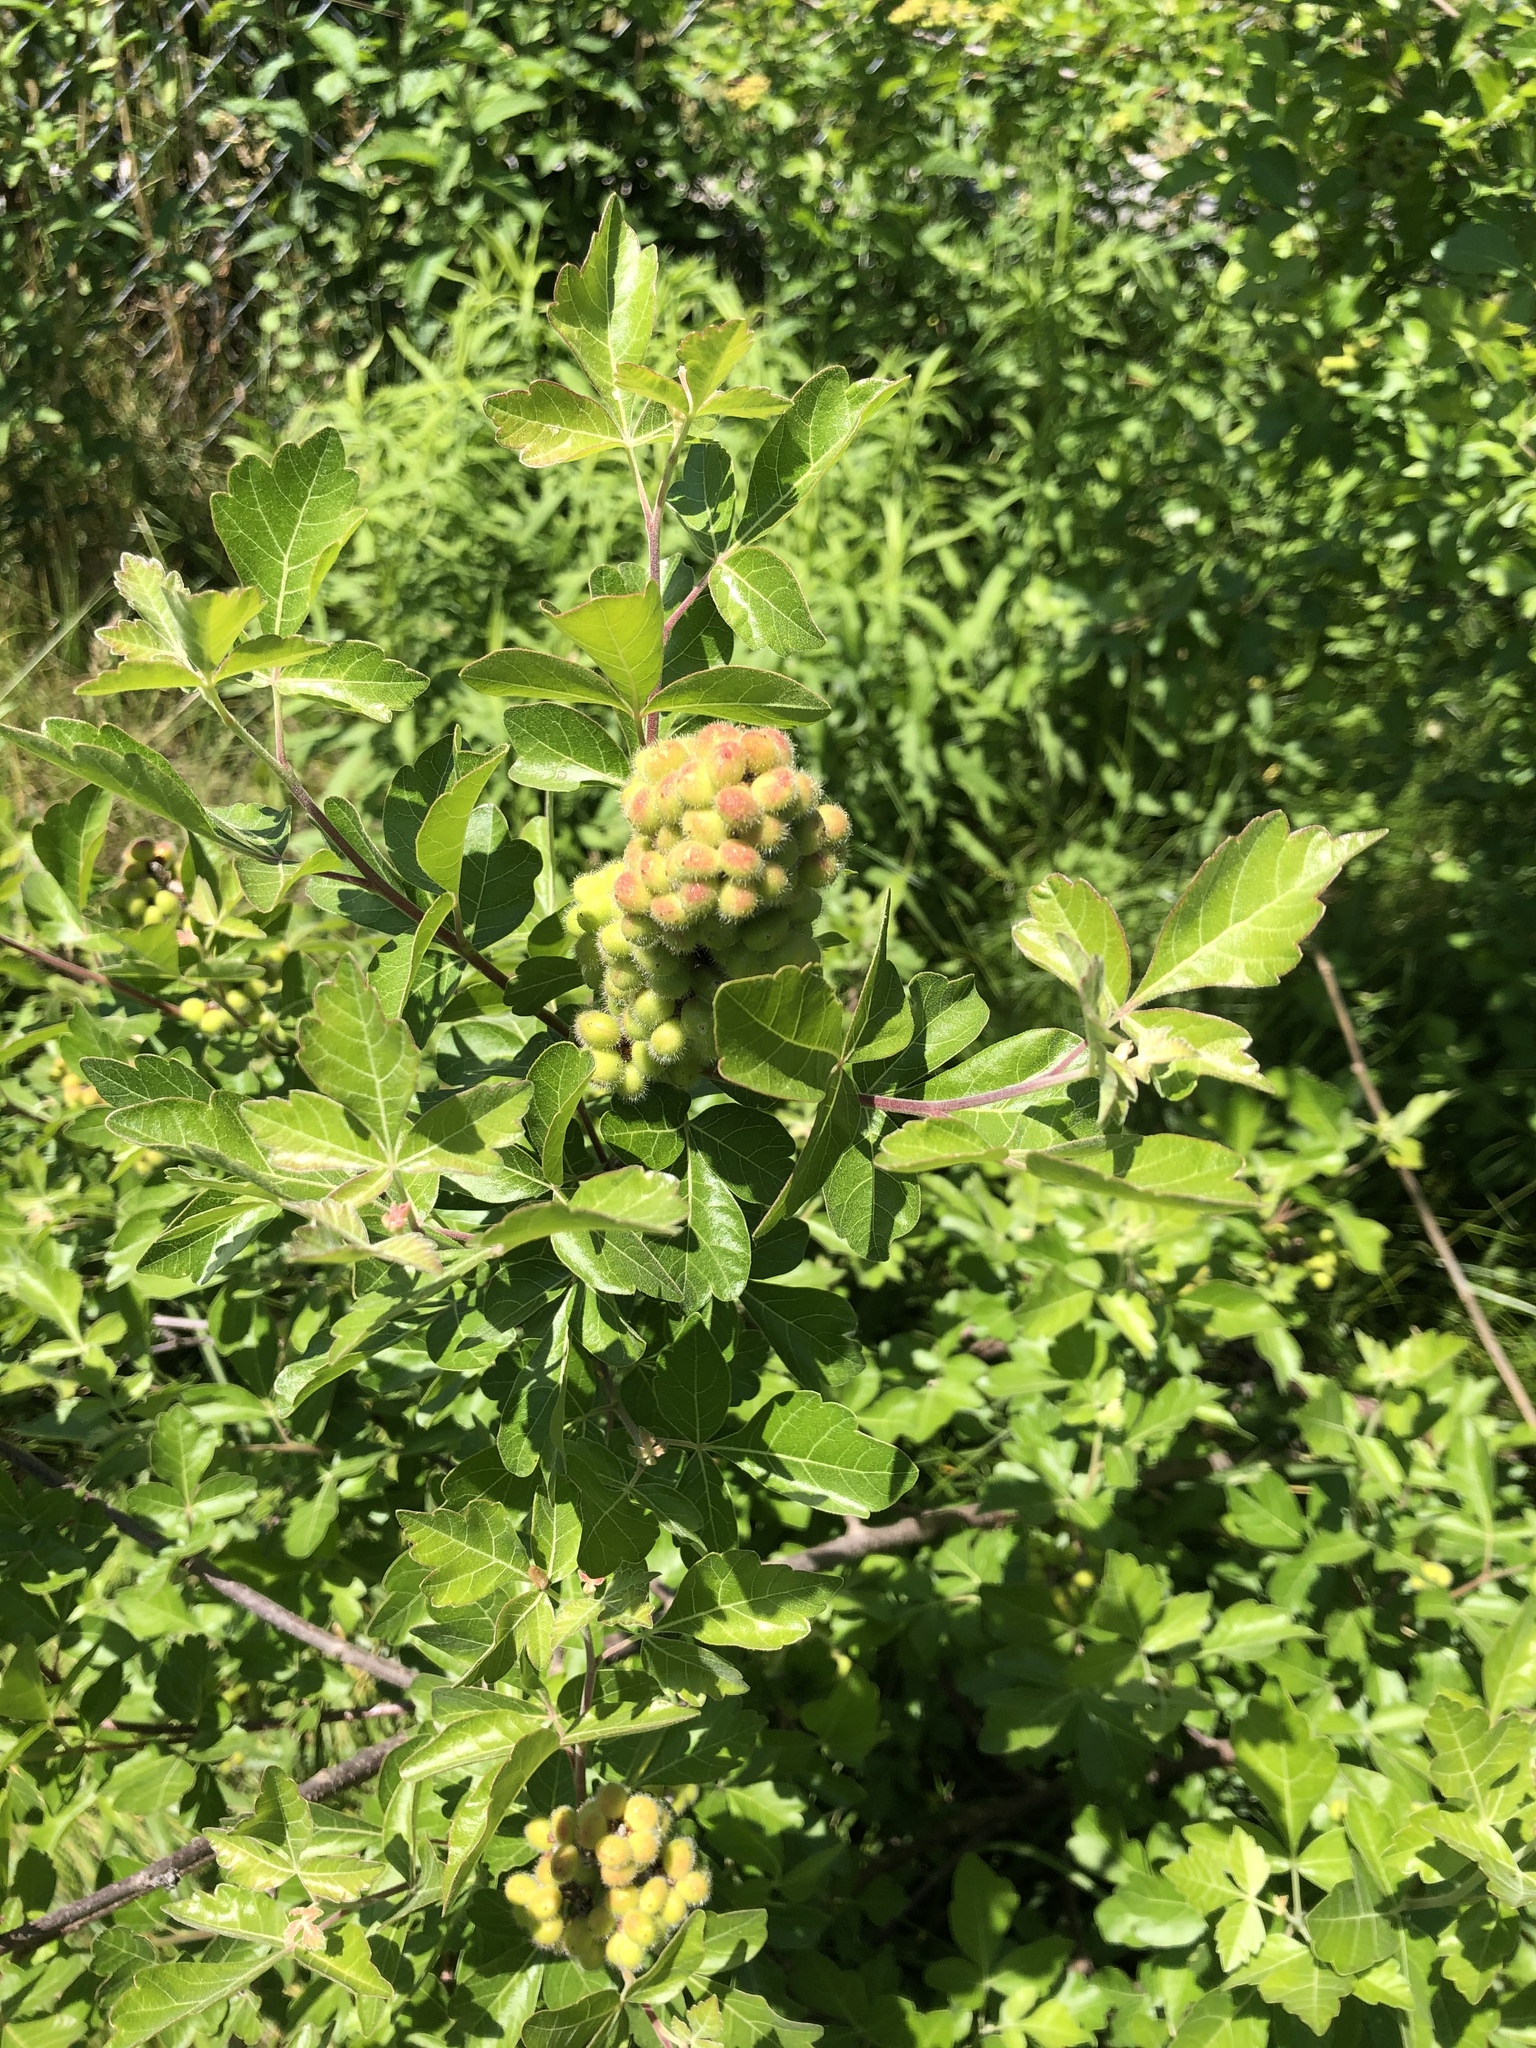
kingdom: Plantae
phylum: Tracheophyta
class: Magnoliopsida
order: Sapindales
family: Anacardiaceae
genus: Rhus
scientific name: Rhus aromatica
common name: Aromatic sumac
